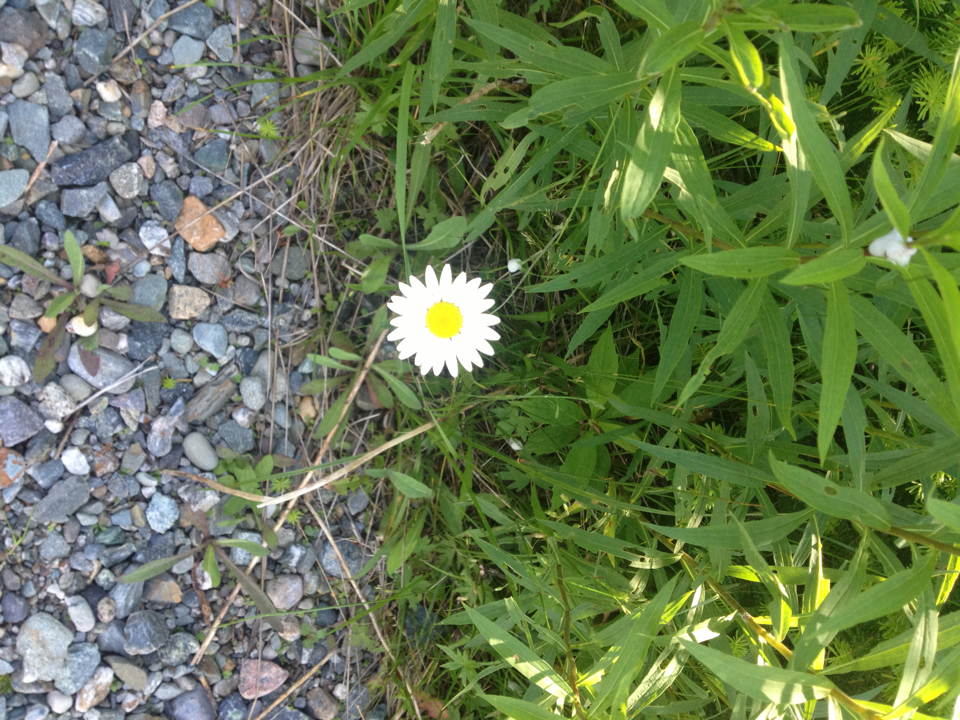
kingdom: Plantae
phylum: Tracheophyta
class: Magnoliopsida
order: Asterales
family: Asteraceae
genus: Leucanthemum
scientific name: Leucanthemum vulgare
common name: Oxeye daisy
